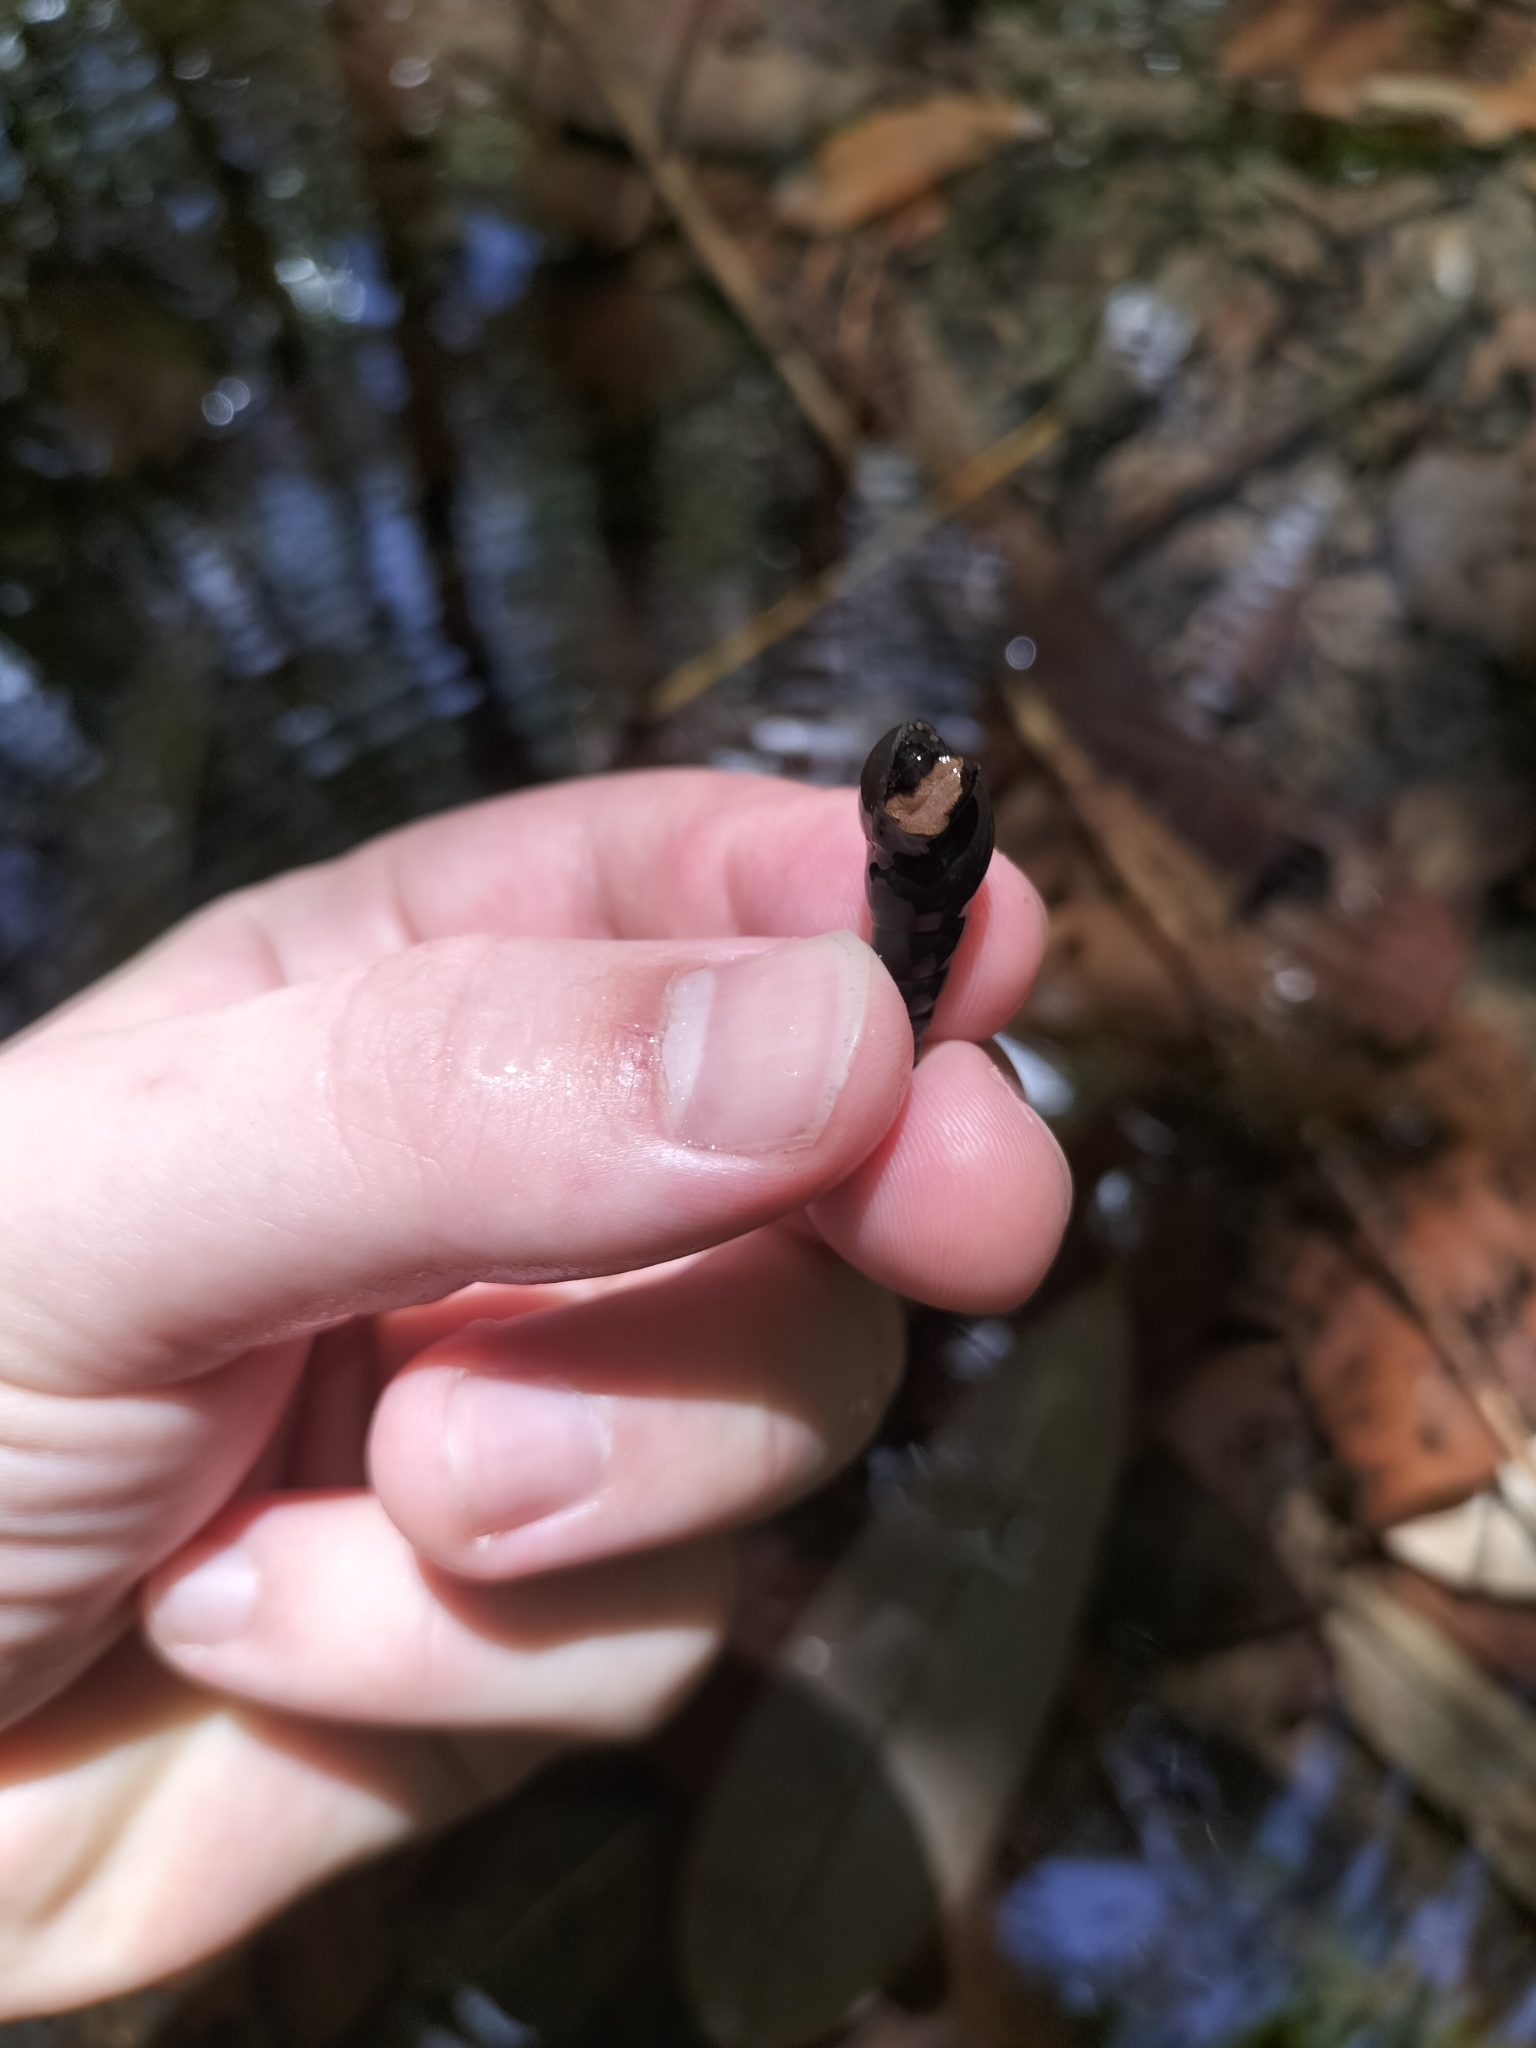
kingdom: Animalia
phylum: Mollusca
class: Gastropoda
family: Thiaridae
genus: Stenomelania
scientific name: Stenomelania denisoniensis
